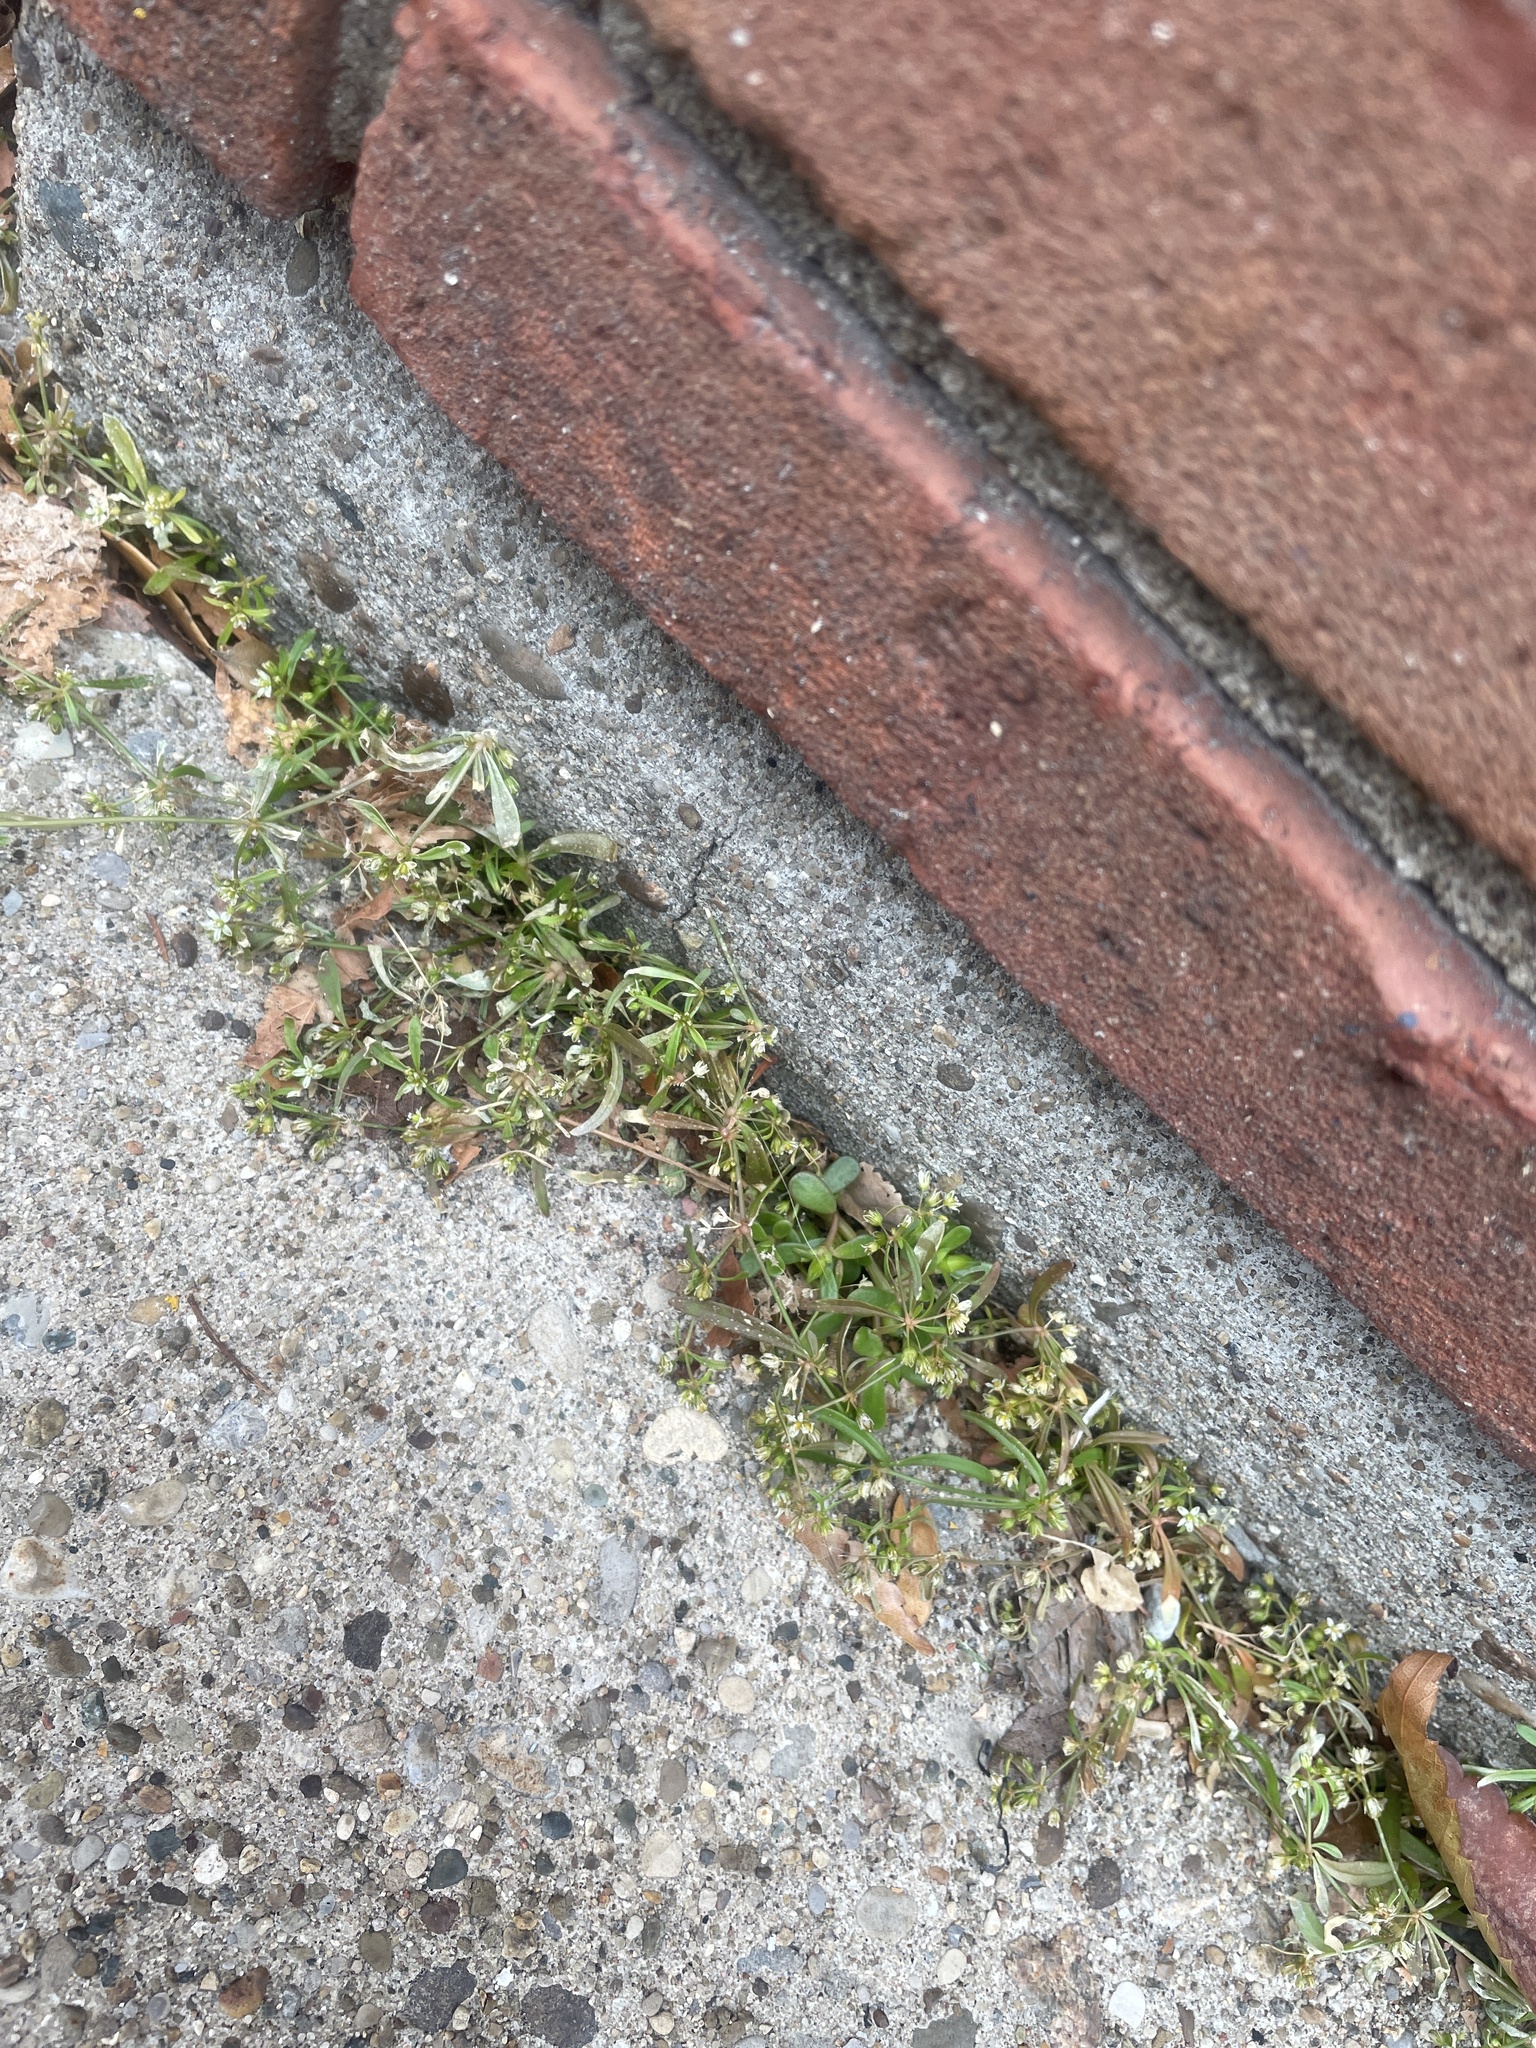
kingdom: Plantae
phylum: Tracheophyta
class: Magnoliopsida
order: Caryophyllales
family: Molluginaceae
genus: Mollugo
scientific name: Mollugo verticillata
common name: Green carpetweed
